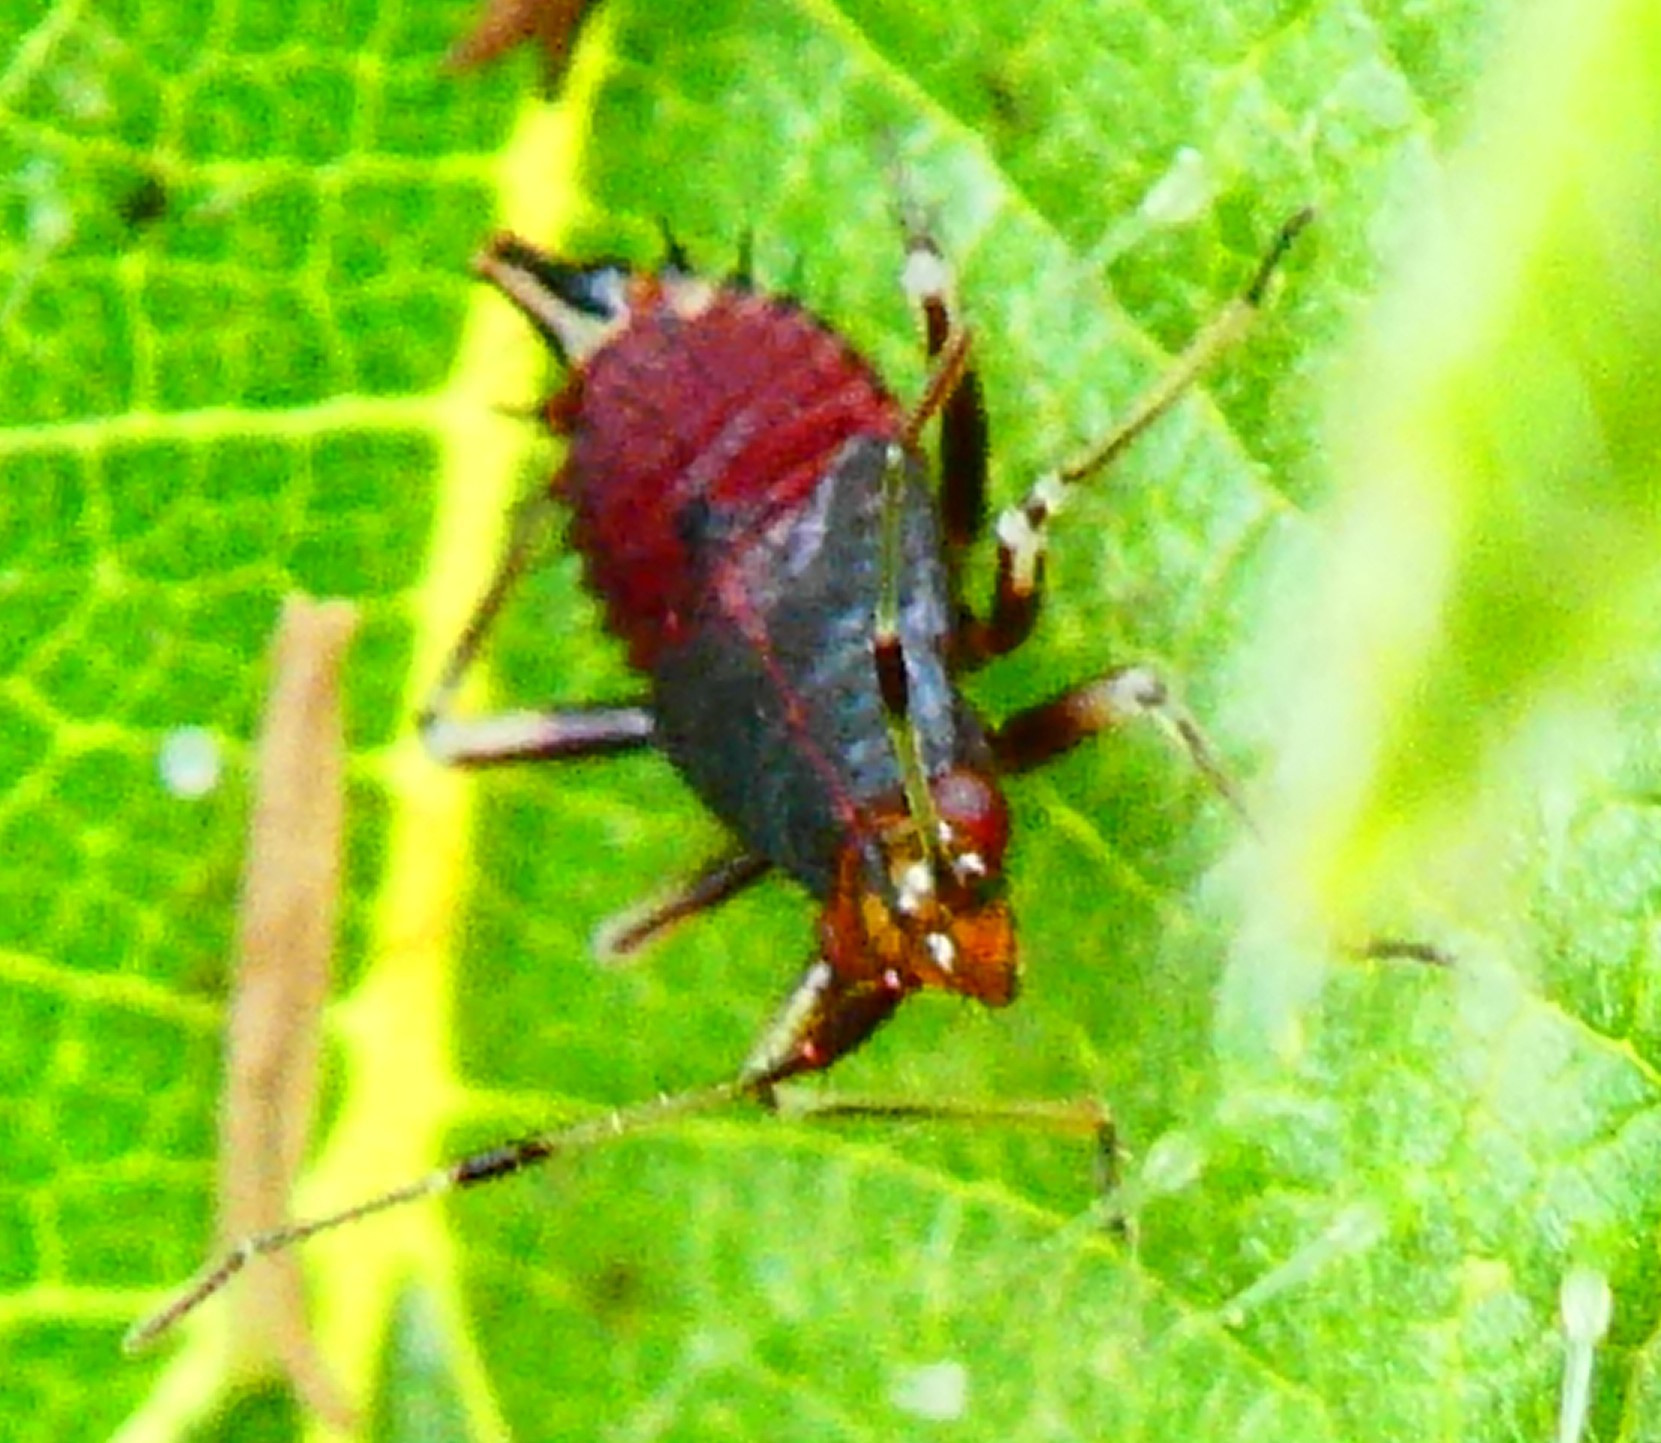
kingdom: Animalia
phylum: Arthropoda
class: Insecta
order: Hemiptera
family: Miridae
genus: Deraeocoris
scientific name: Deraeocoris ruber
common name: Plant bug
